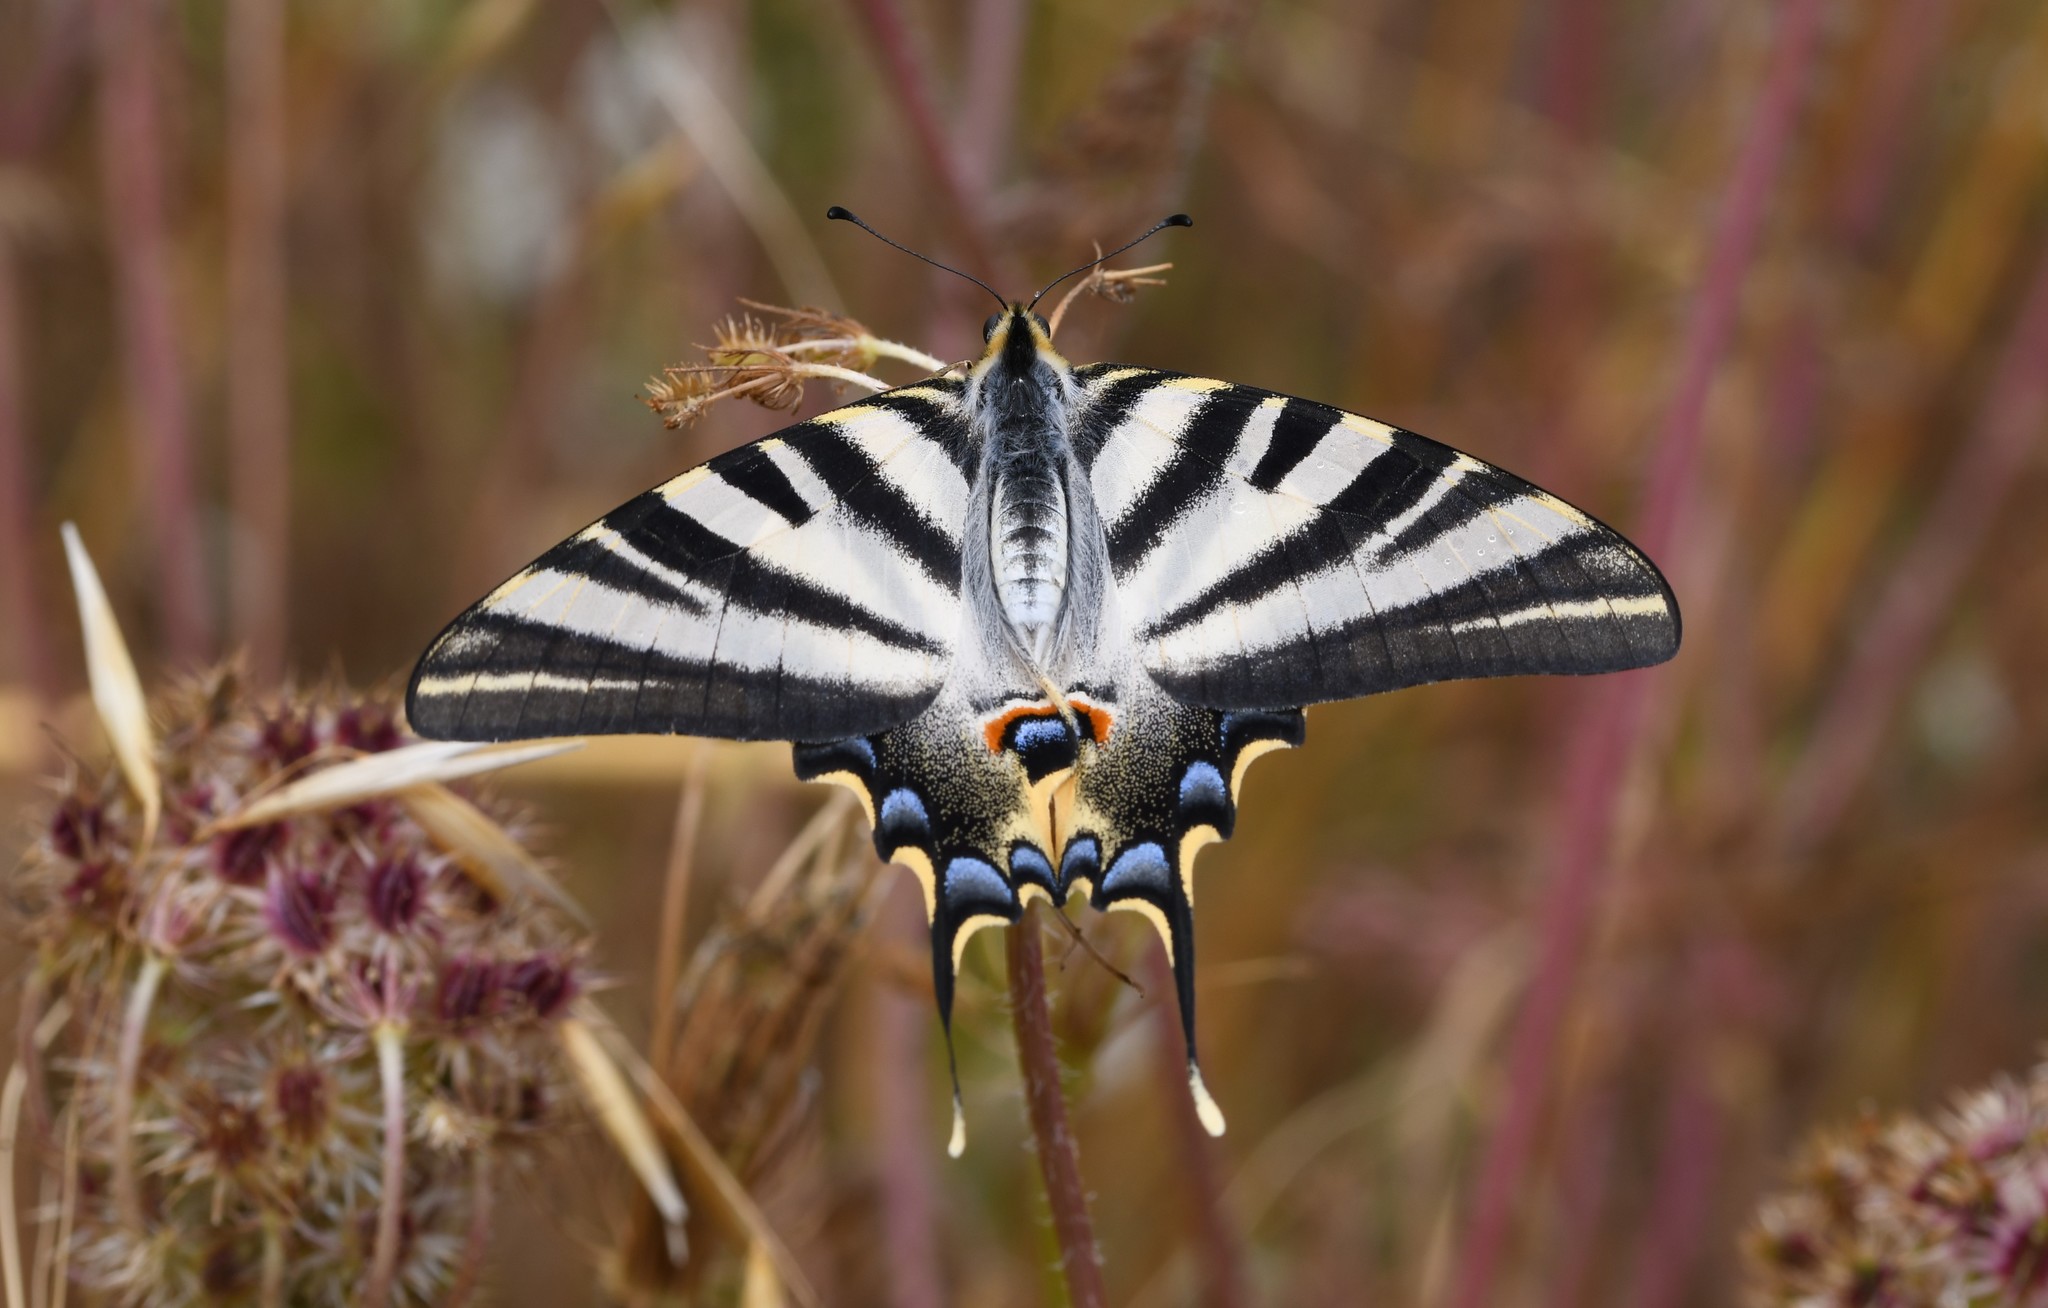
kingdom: Animalia
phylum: Arthropoda
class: Insecta
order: Lepidoptera
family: Papilionidae
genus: Iphiclides
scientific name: Iphiclides feisthamelii
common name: Iberian scarce swallowtail
